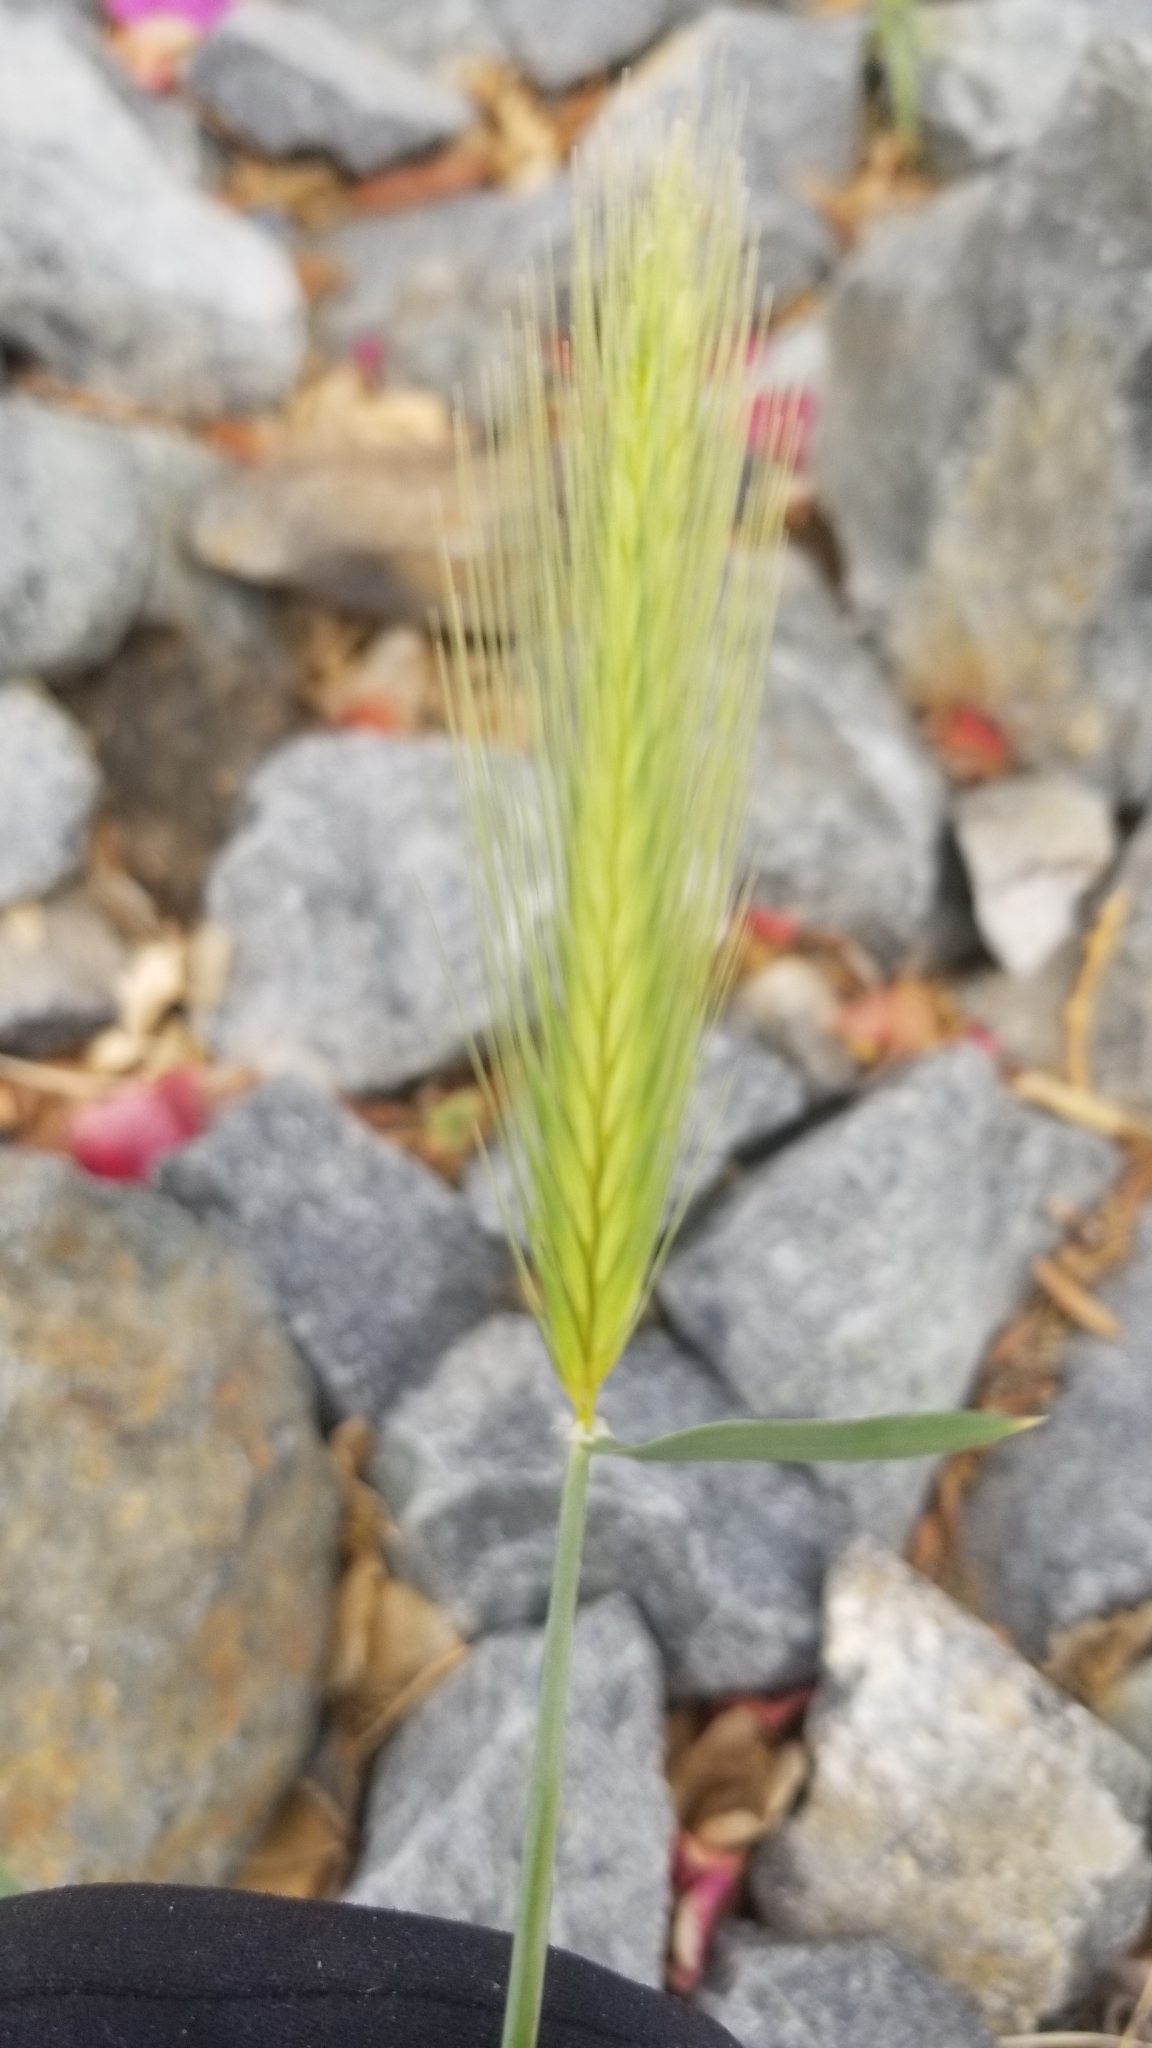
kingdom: Plantae
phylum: Tracheophyta
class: Liliopsida
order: Poales
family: Poaceae
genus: Hordeum
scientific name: Hordeum murinum
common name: Wall barley
